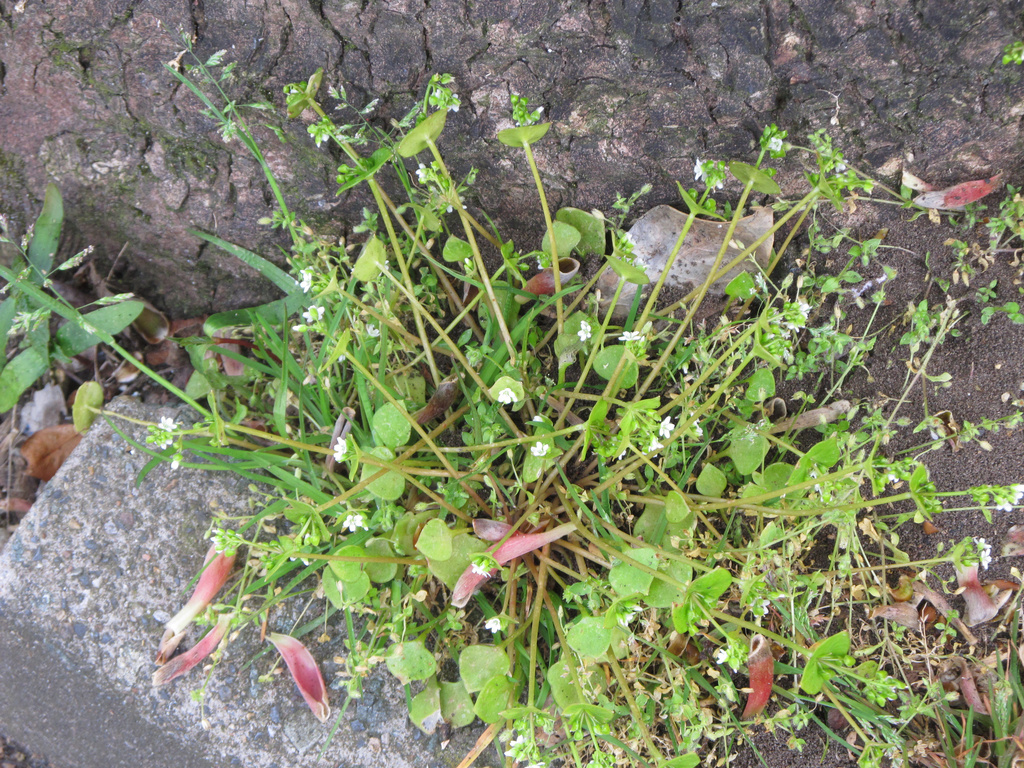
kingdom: Plantae
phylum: Tracheophyta
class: Magnoliopsida
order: Caryophyllales
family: Montiaceae
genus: Claytonia
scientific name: Claytonia perfoliata
